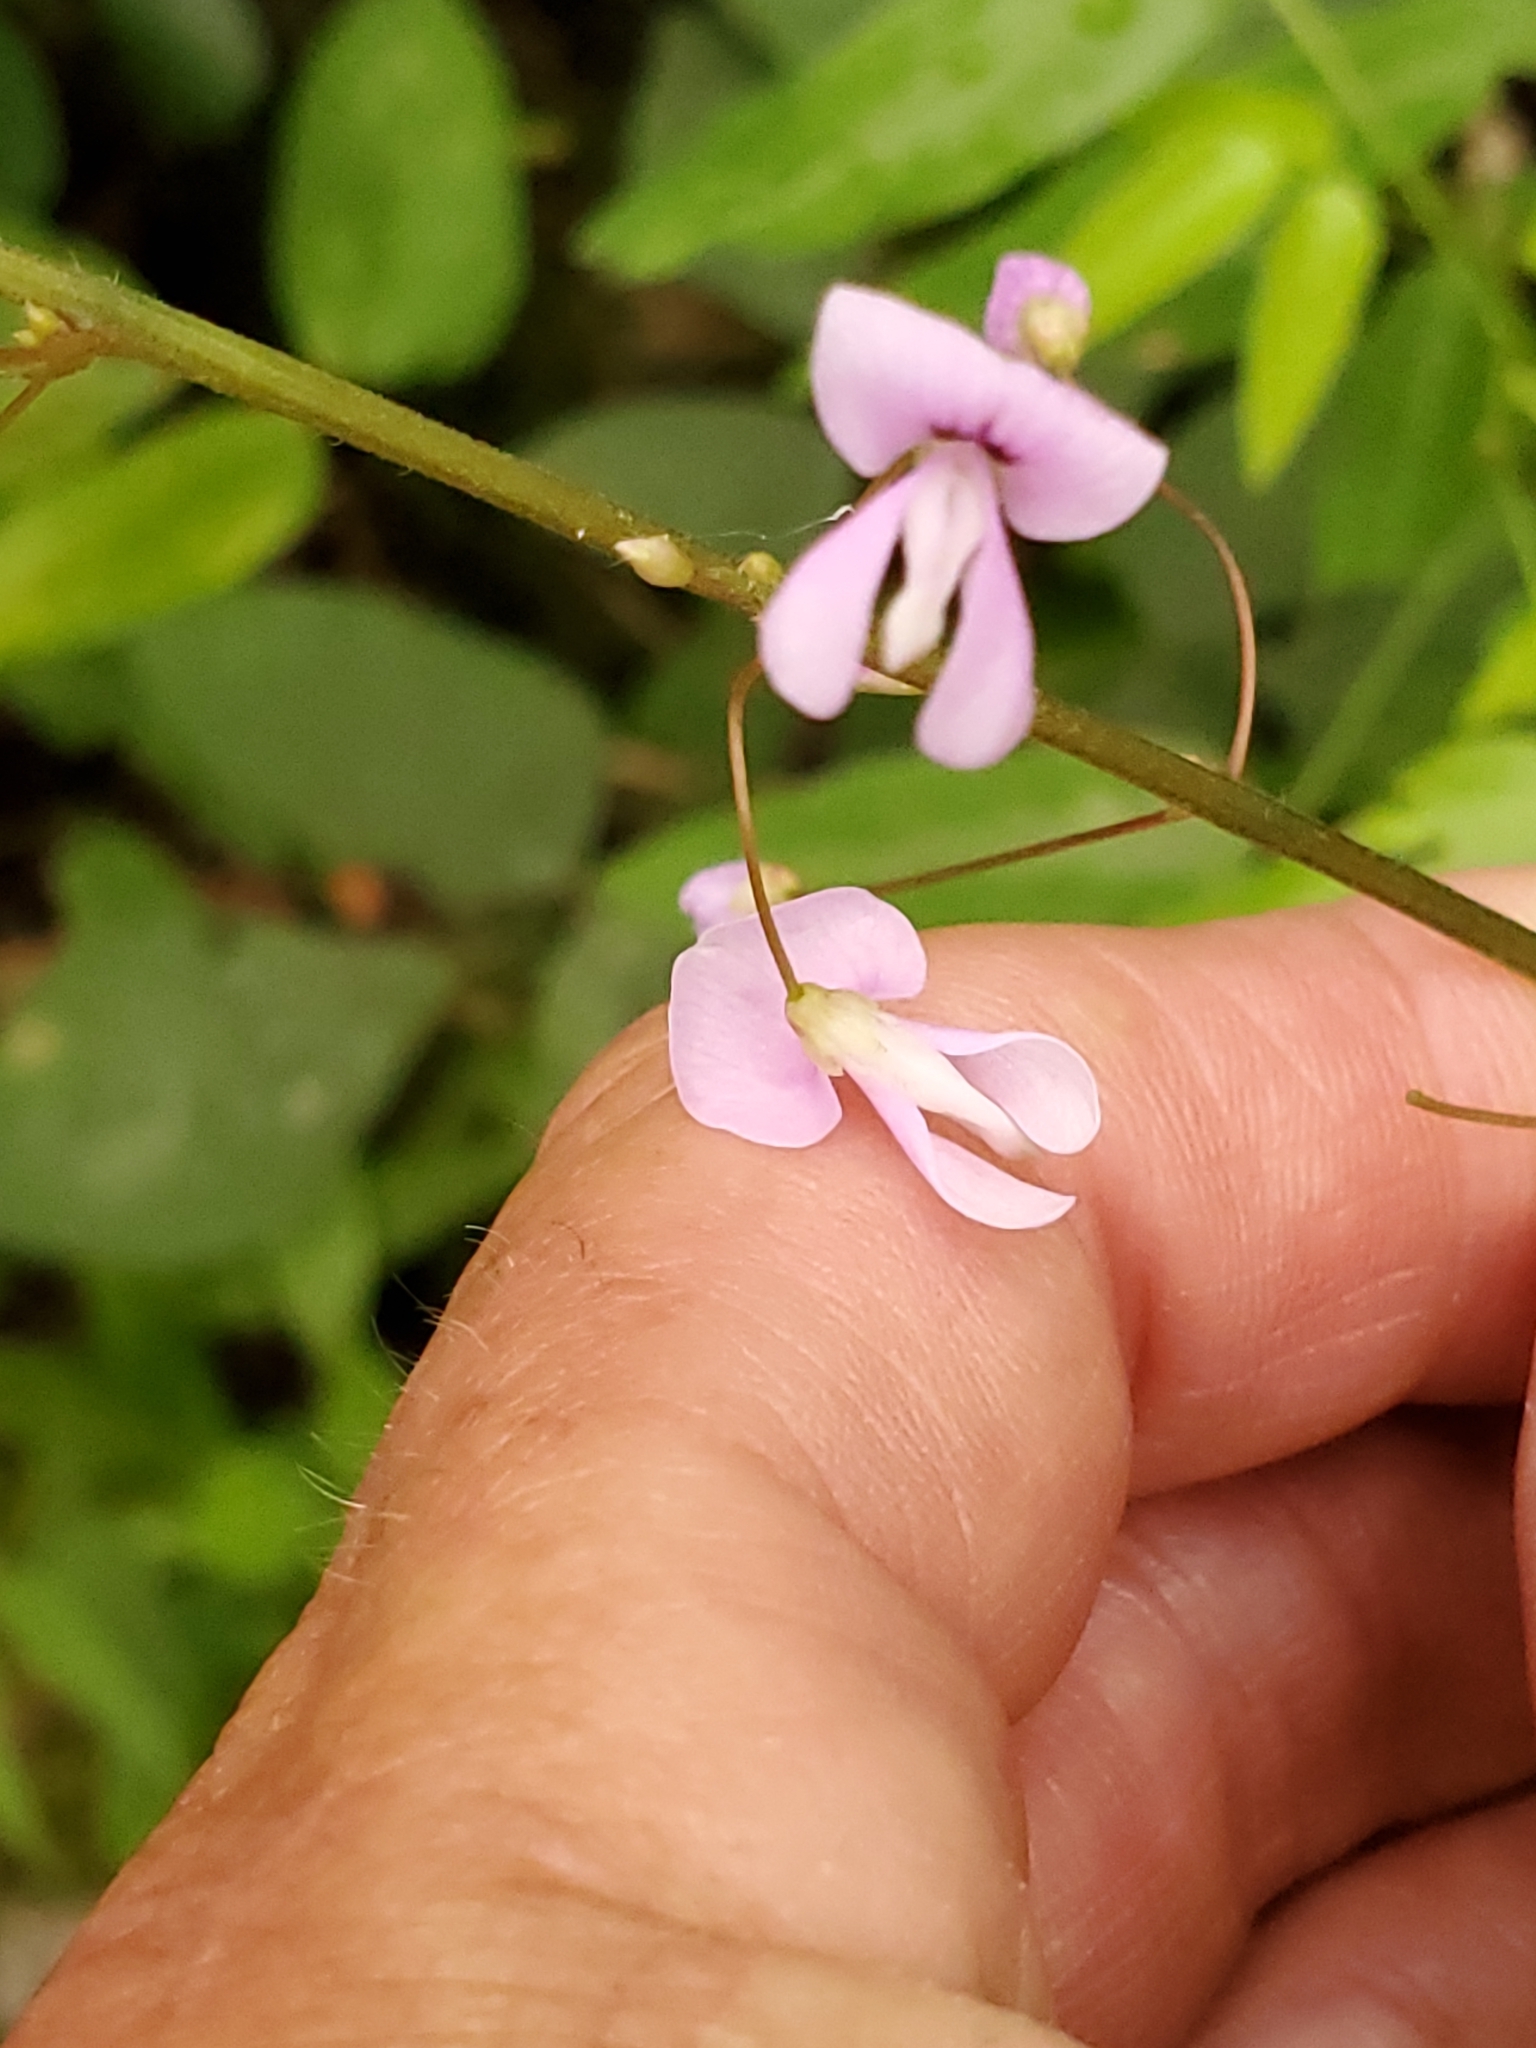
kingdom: Plantae
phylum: Tracheophyta
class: Magnoliopsida
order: Fabales
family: Fabaceae
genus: Hylodesmum
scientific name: Hylodesmum nudiflorum
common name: Bare-stemmed tick-trefoil
